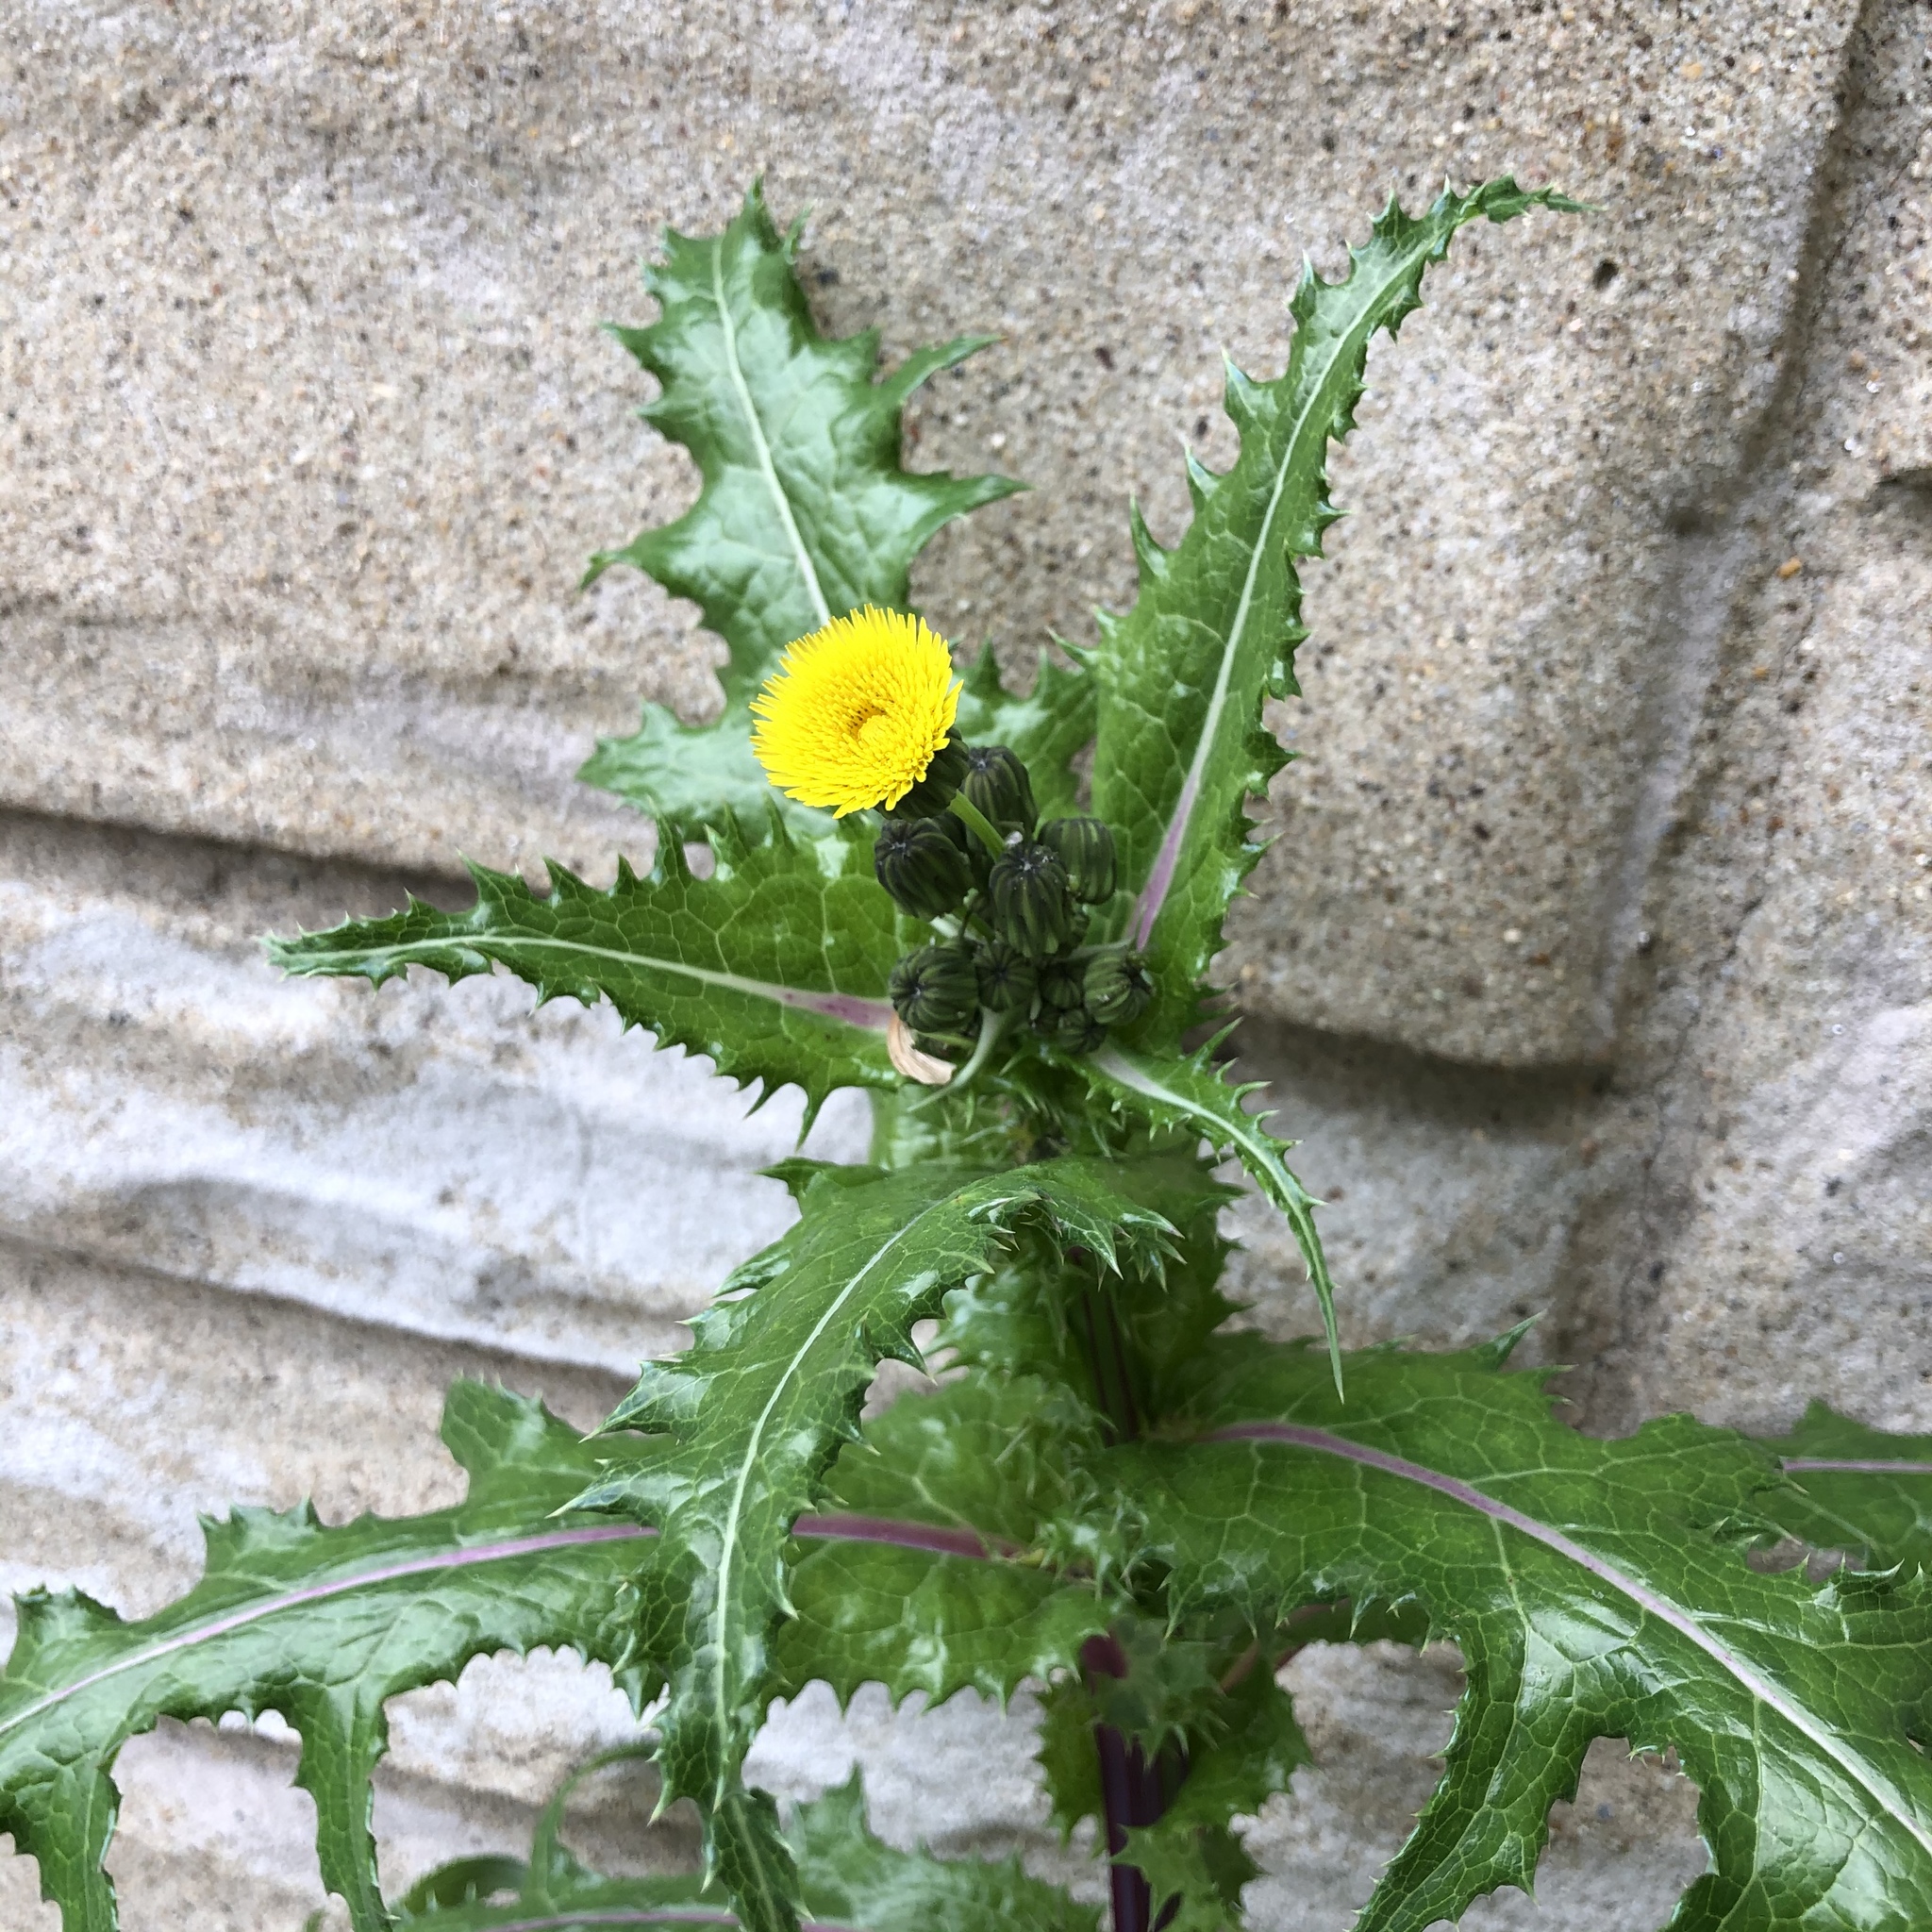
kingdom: Plantae
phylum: Tracheophyta
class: Magnoliopsida
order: Asterales
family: Asteraceae
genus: Sonchus
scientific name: Sonchus asper
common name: Prickly sow-thistle
